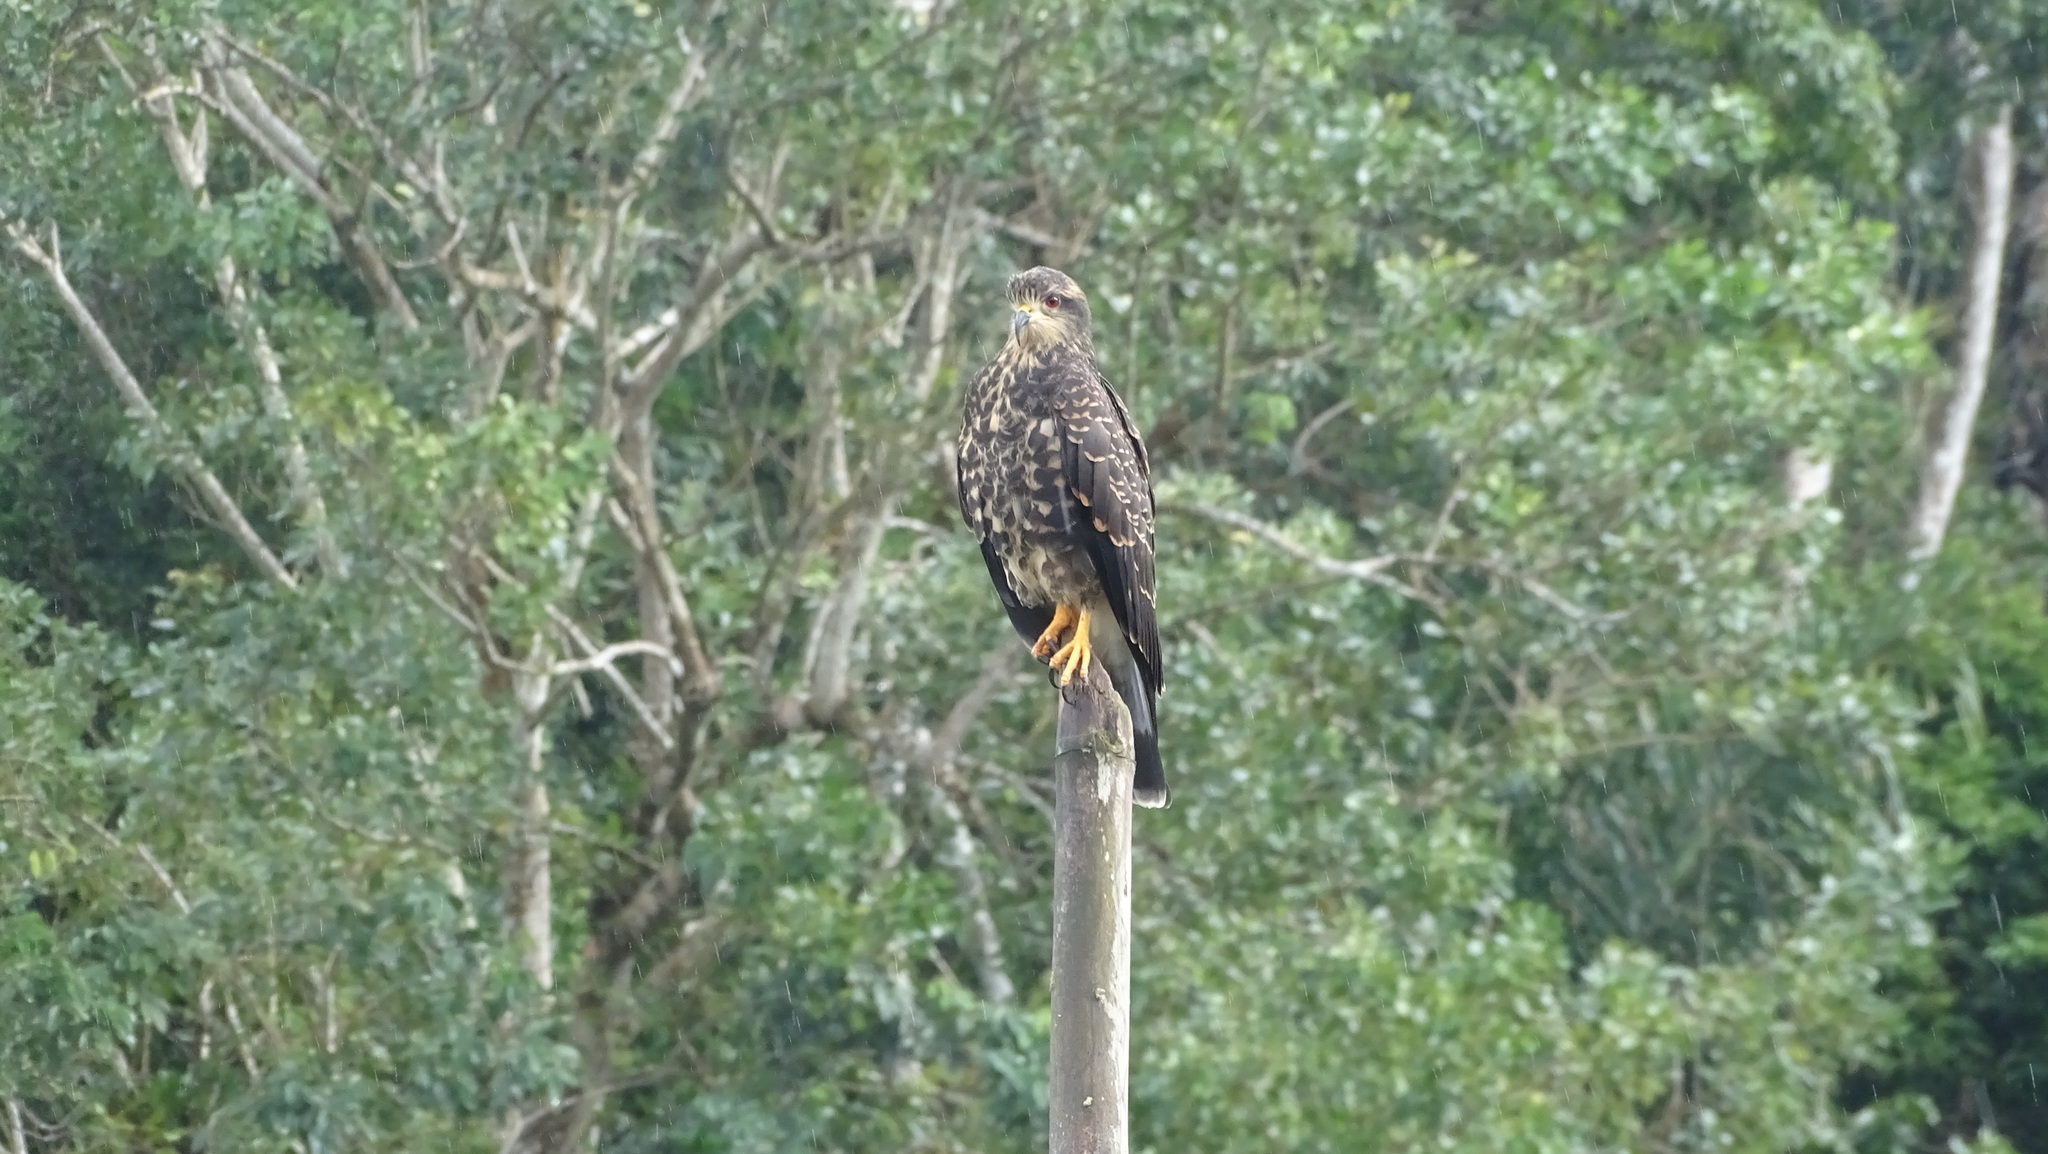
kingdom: Animalia
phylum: Chordata
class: Aves
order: Accipitriformes
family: Accipitridae
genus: Rostrhamus
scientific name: Rostrhamus sociabilis
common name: Snail kite
